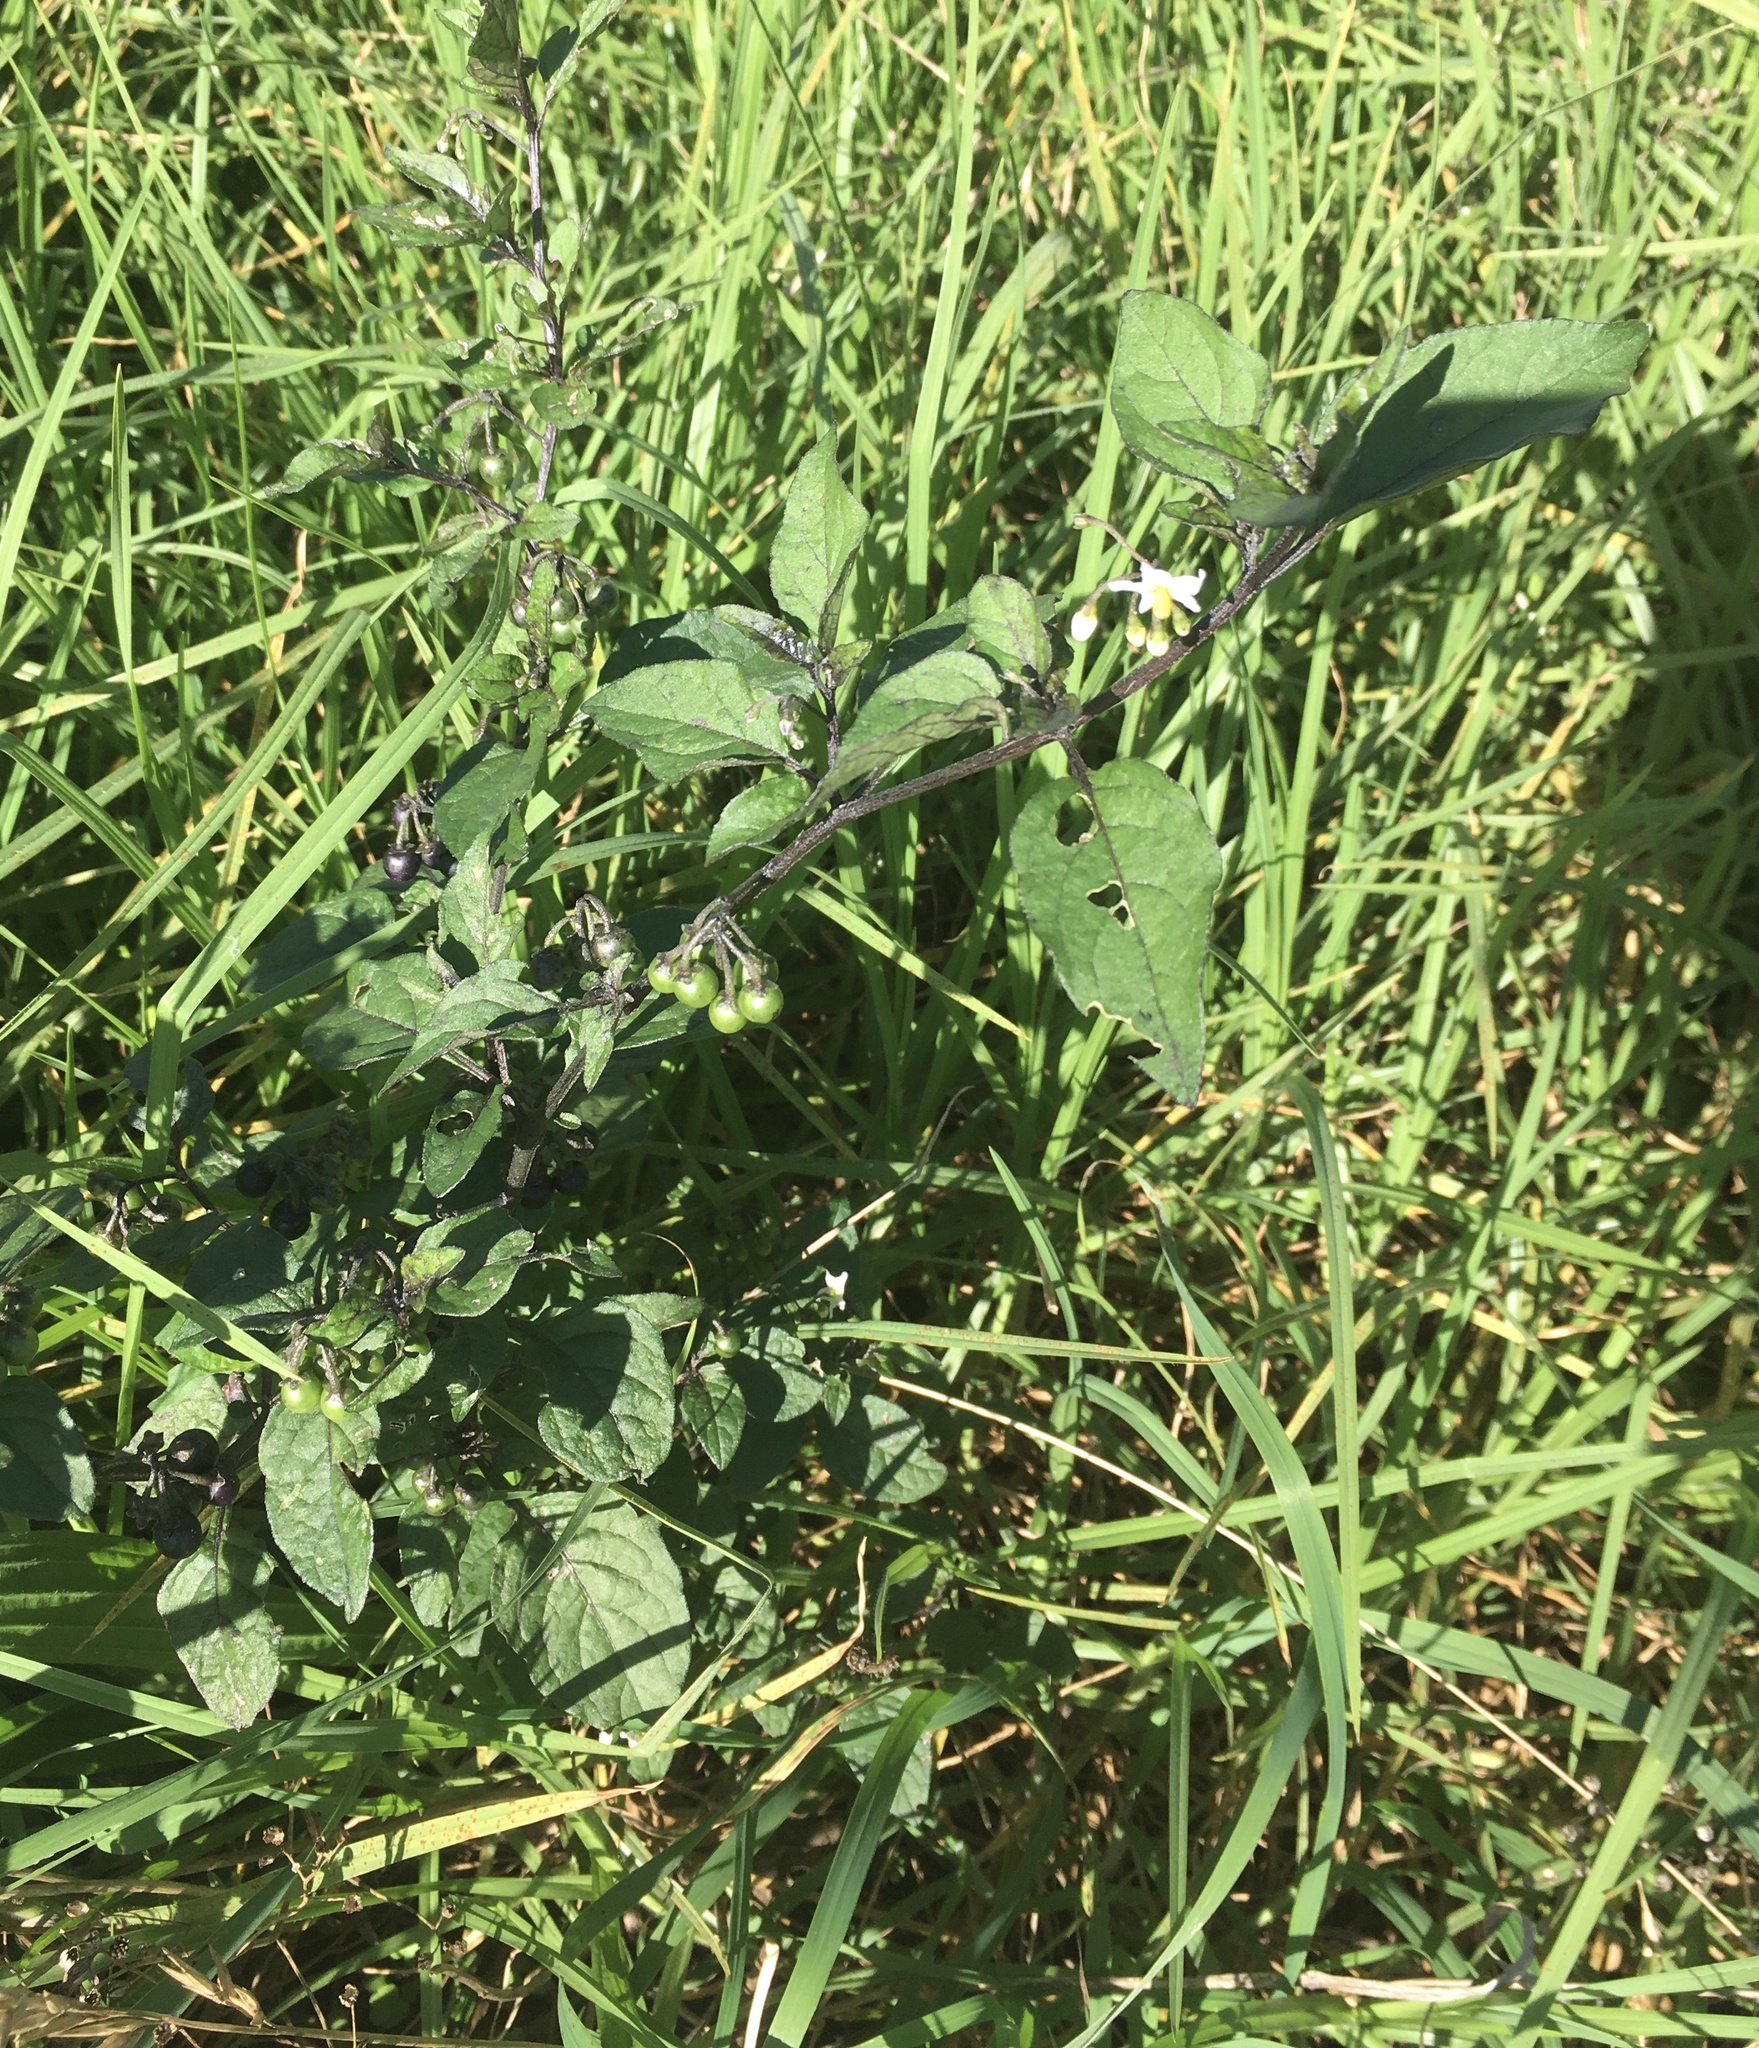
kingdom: Plantae
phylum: Tracheophyta
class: Magnoliopsida
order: Solanales
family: Solanaceae
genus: Solanum
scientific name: Solanum nigrum
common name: Black nightshade
